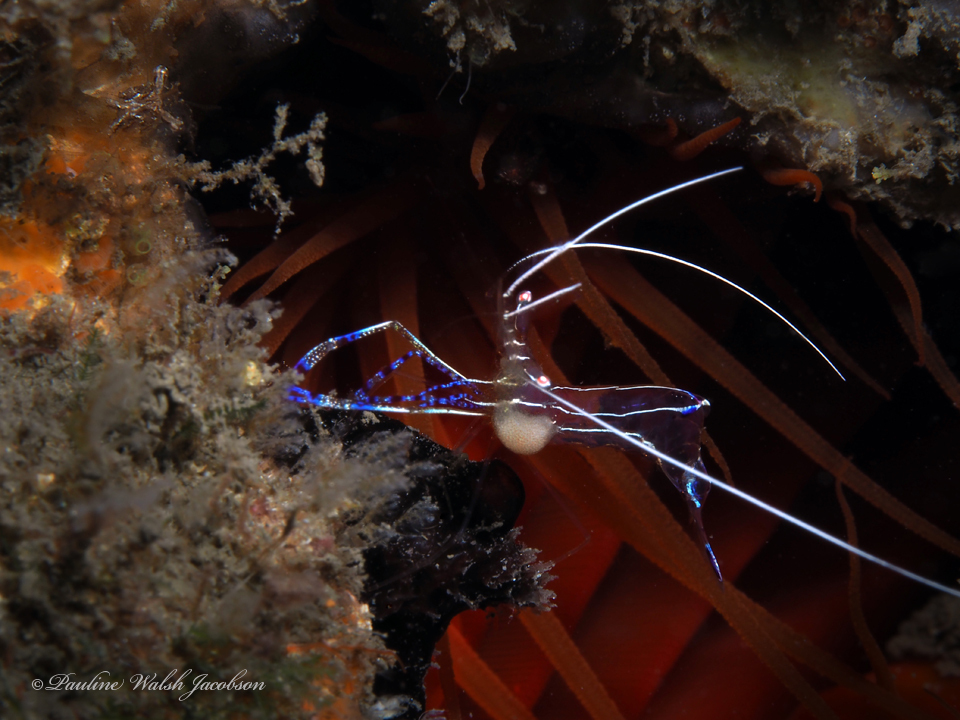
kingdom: Animalia
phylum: Arthropoda
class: Malacostraca
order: Decapoda
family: Palaemonidae
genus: Ancylomenes
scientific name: Ancylomenes pedersoni
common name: Pederson's cleaning shrimp
